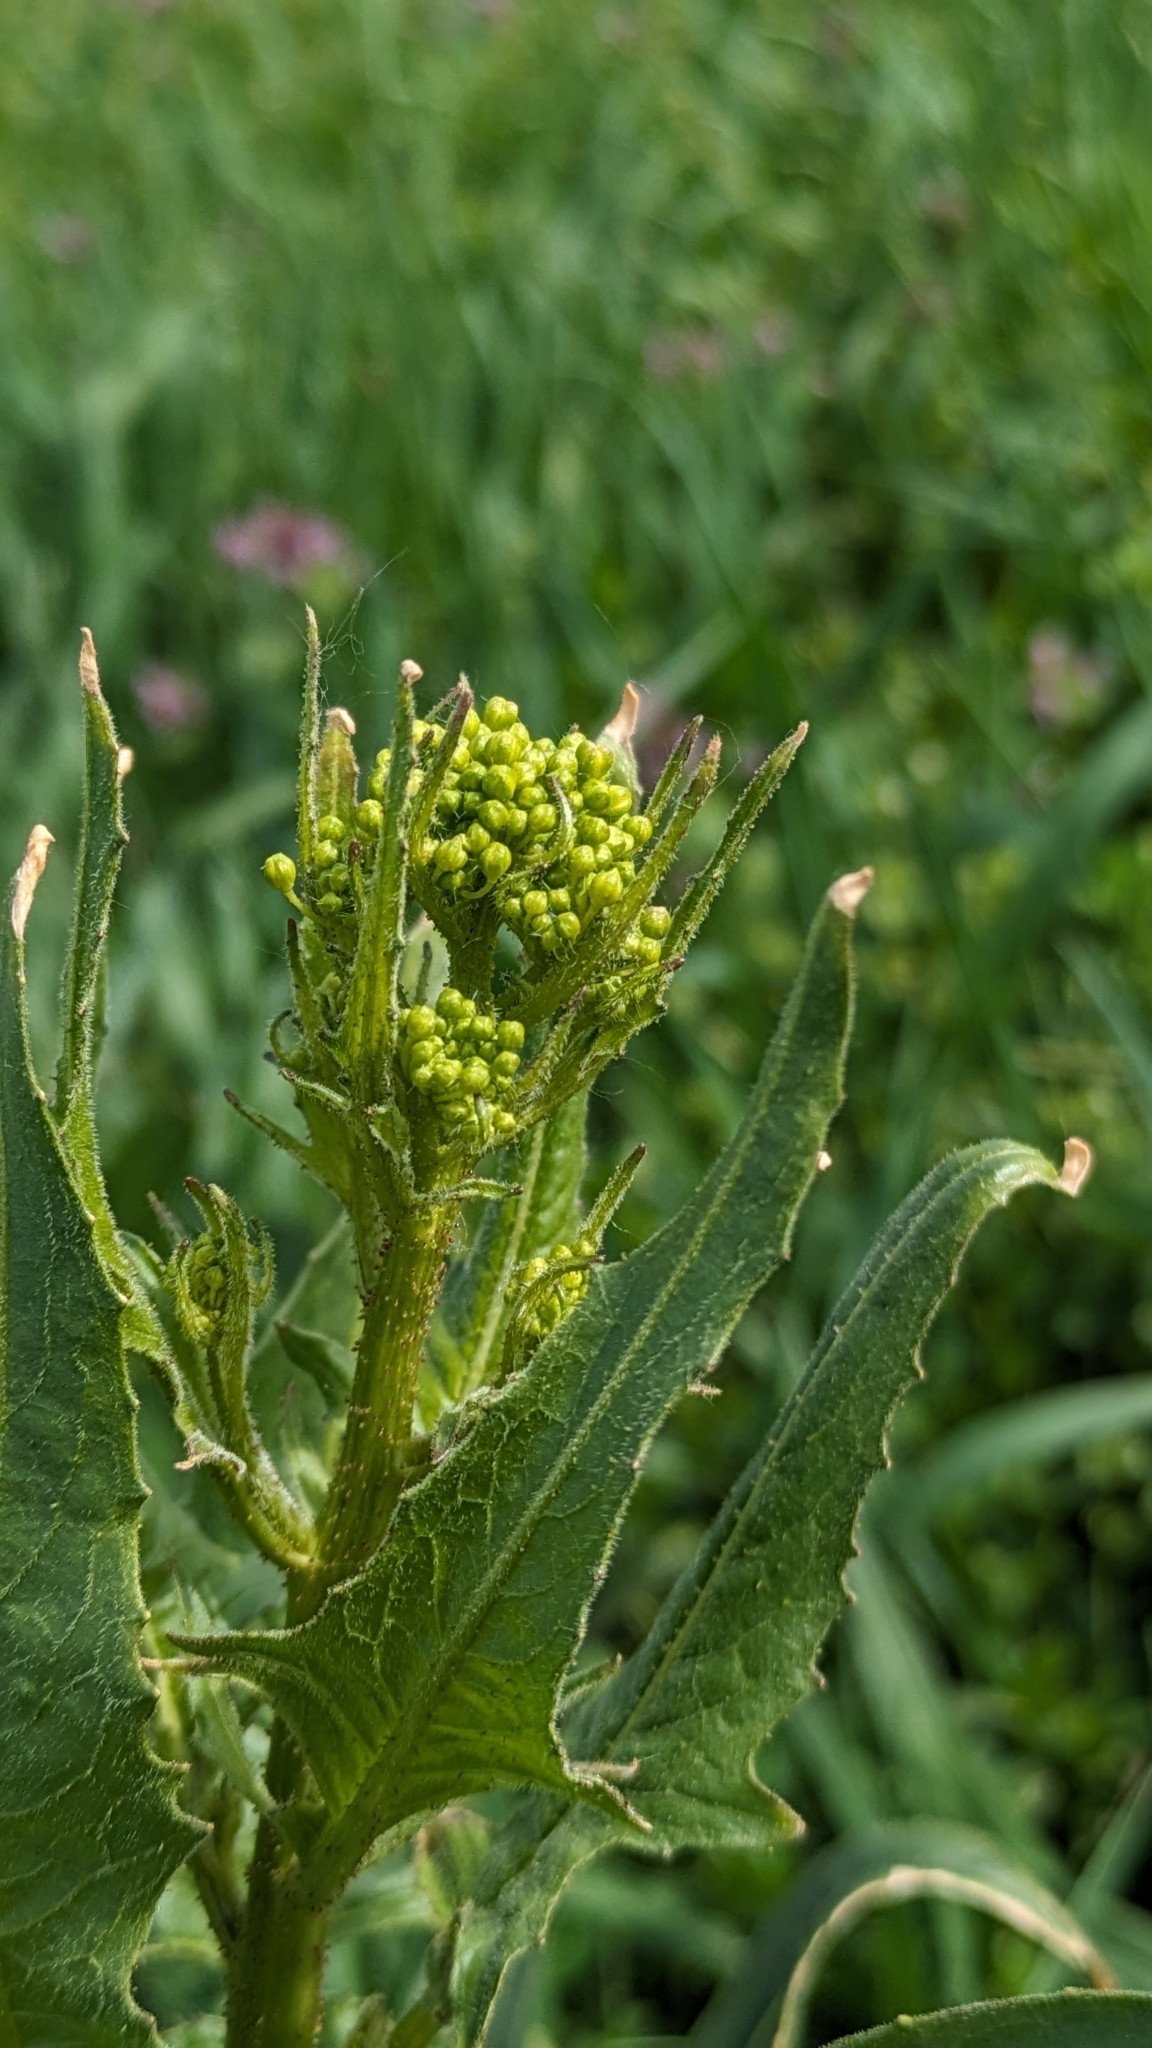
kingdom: Plantae
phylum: Tracheophyta
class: Magnoliopsida
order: Brassicales
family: Brassicaceae
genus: Bunias
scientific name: Bunias orientalis
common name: Warty-cabbage
